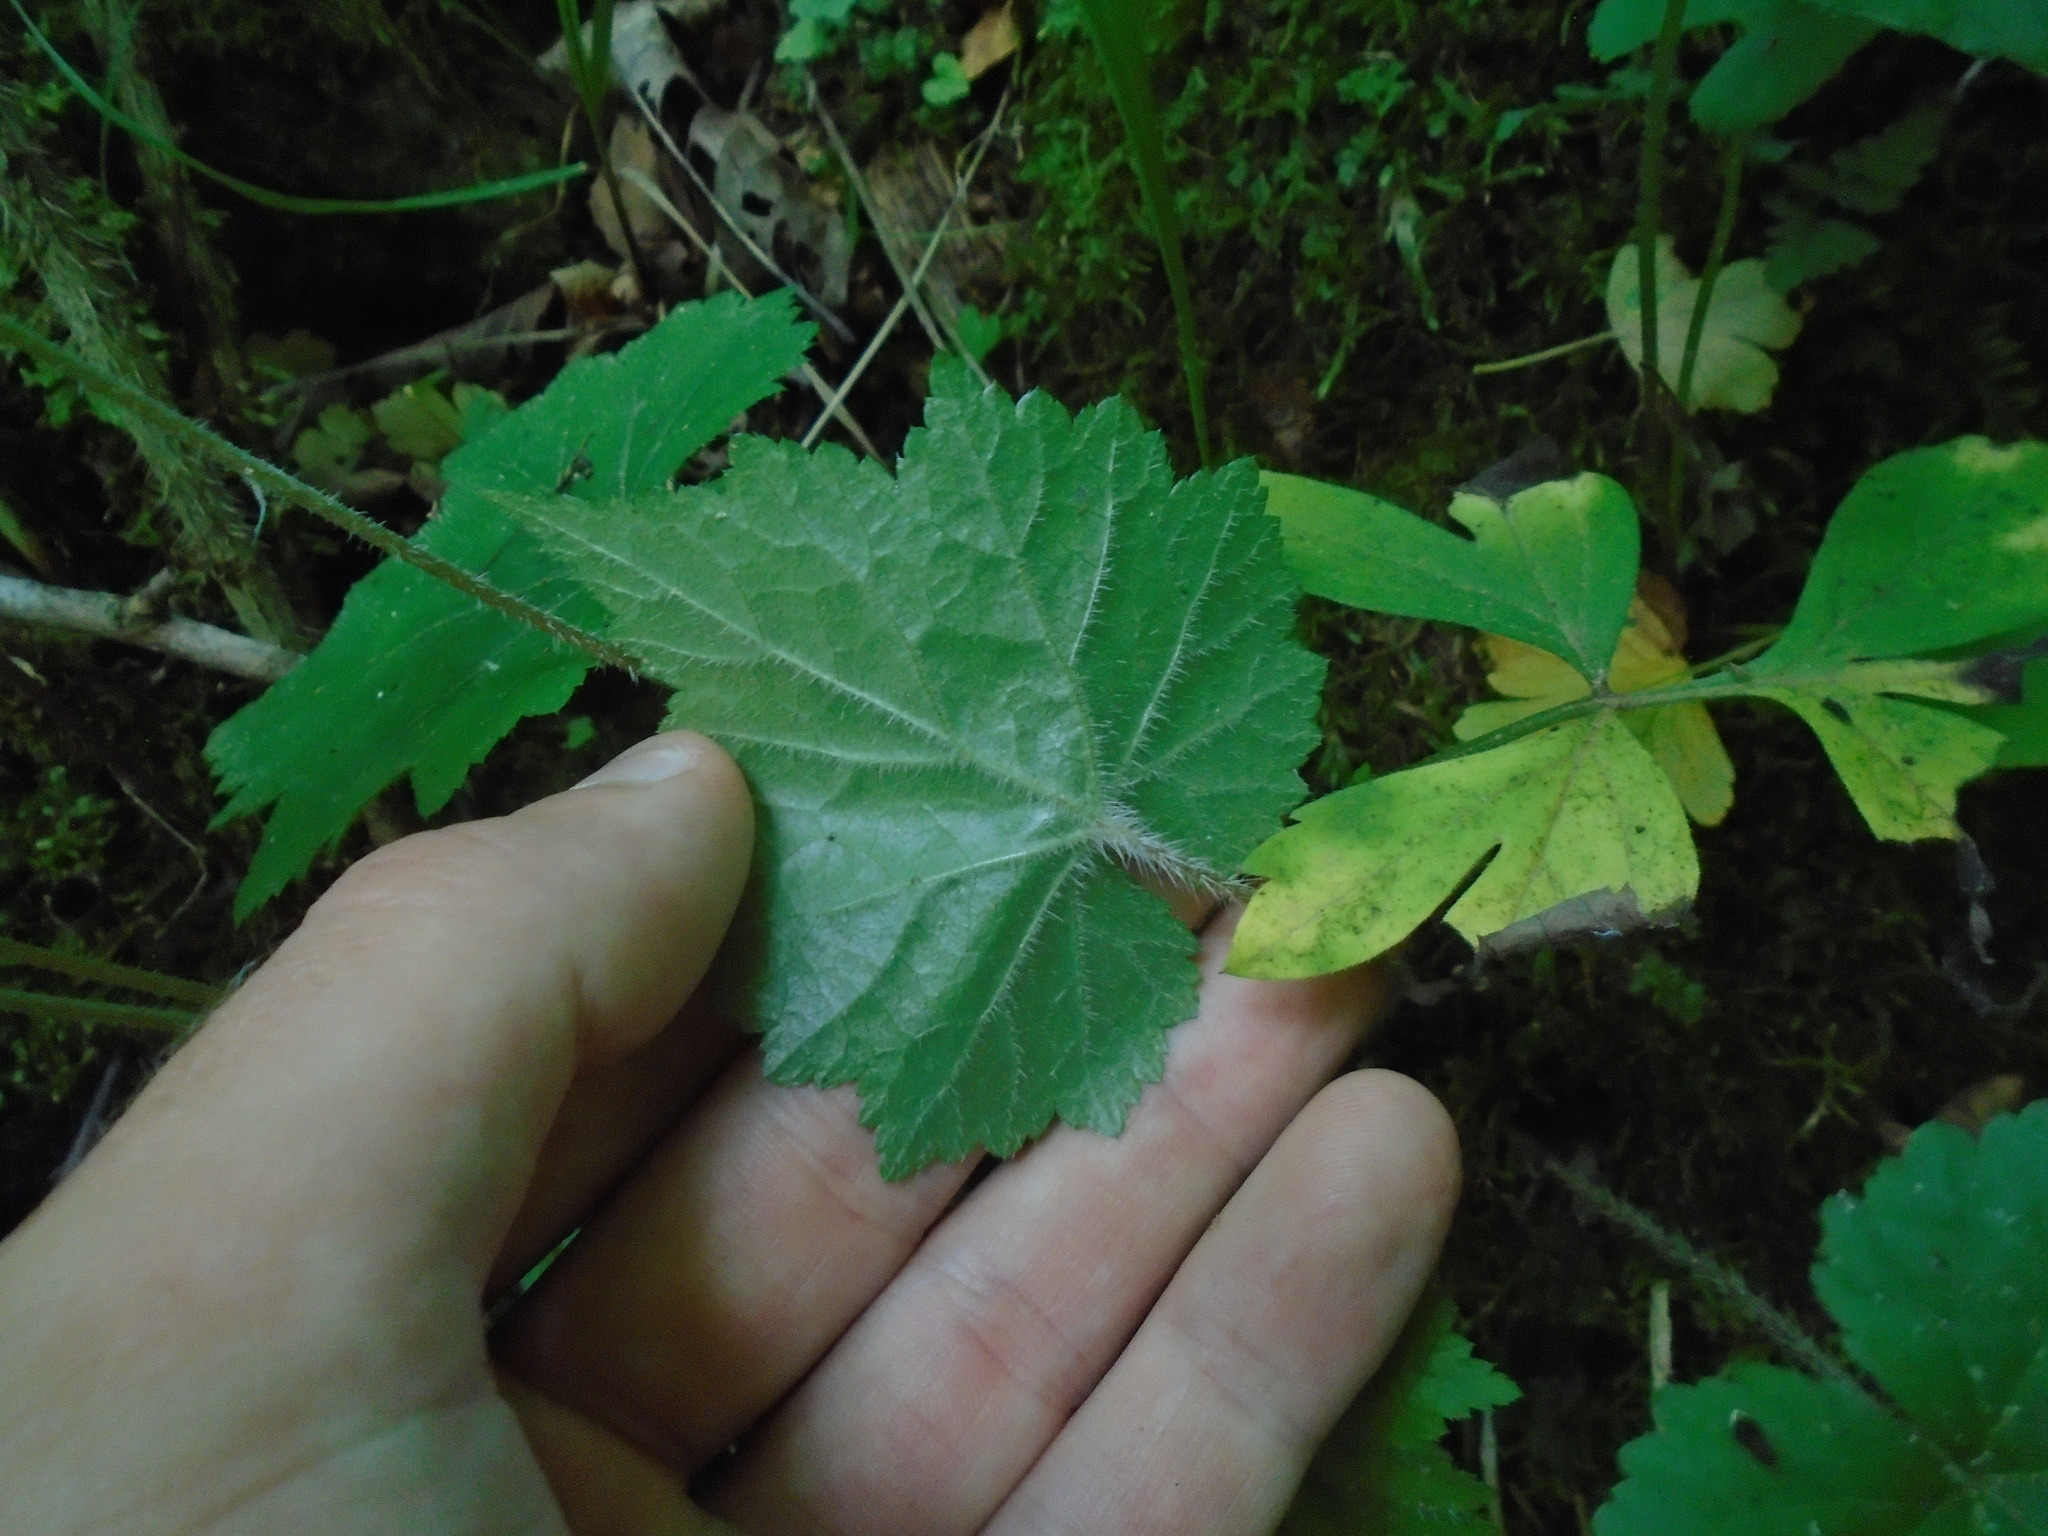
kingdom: Plantae
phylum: Tracheophyta
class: Magnoliopsida
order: Saxifragales
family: Saxifragaceae
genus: Mitella
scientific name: Mitella diphylla
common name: Coolwort
